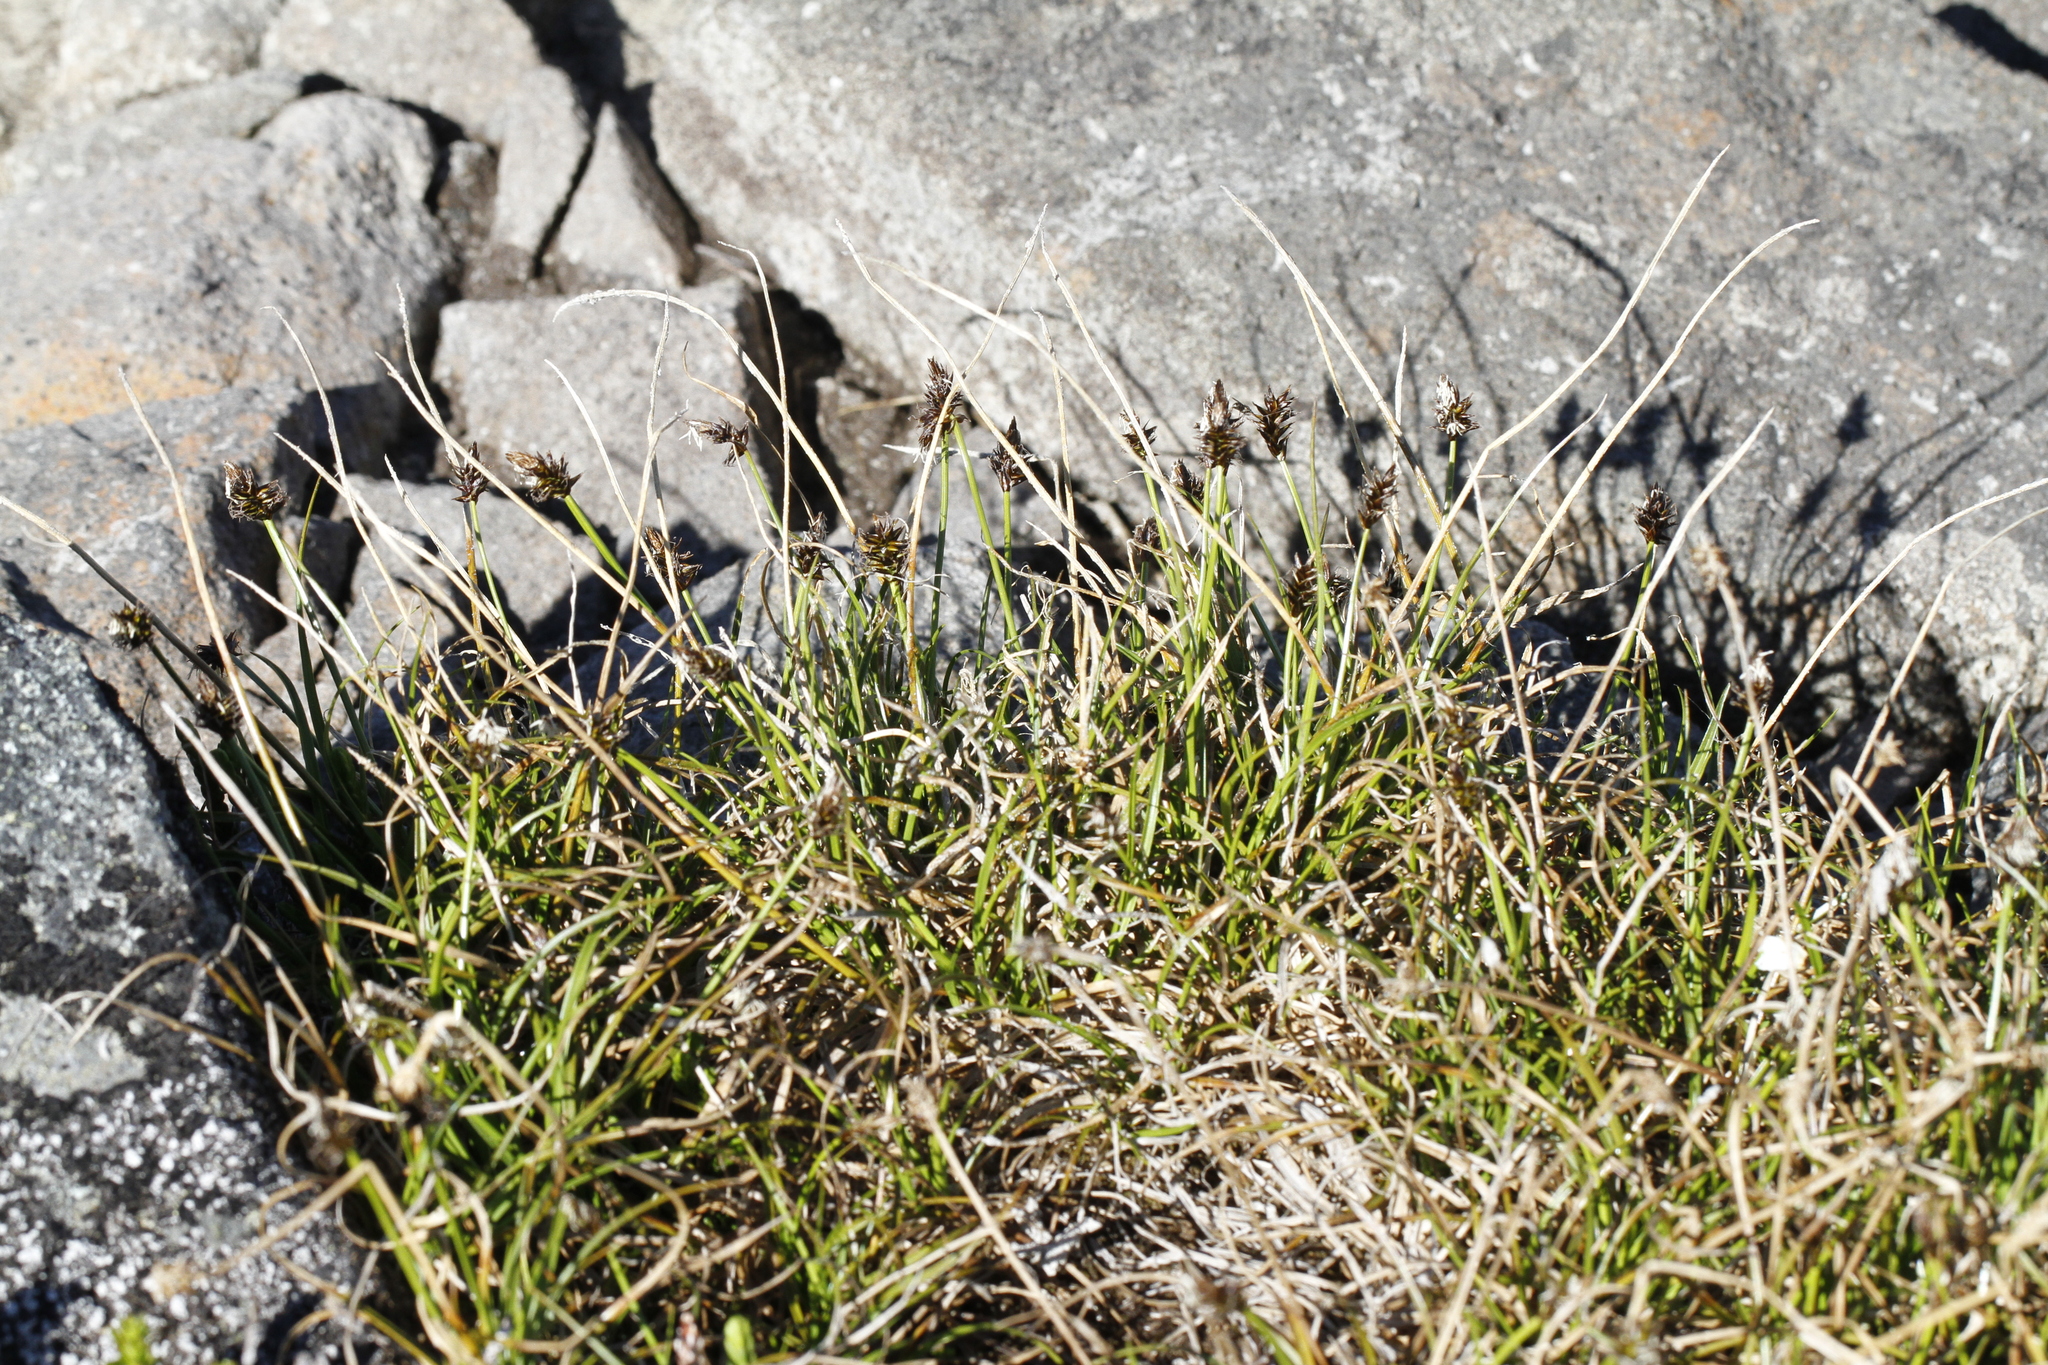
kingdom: Plantae
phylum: Tracheophyta
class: Liliopsida
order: Poales
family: Cyperaceae
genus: Carex
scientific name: Carex nigricans
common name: Black alpine sedge
